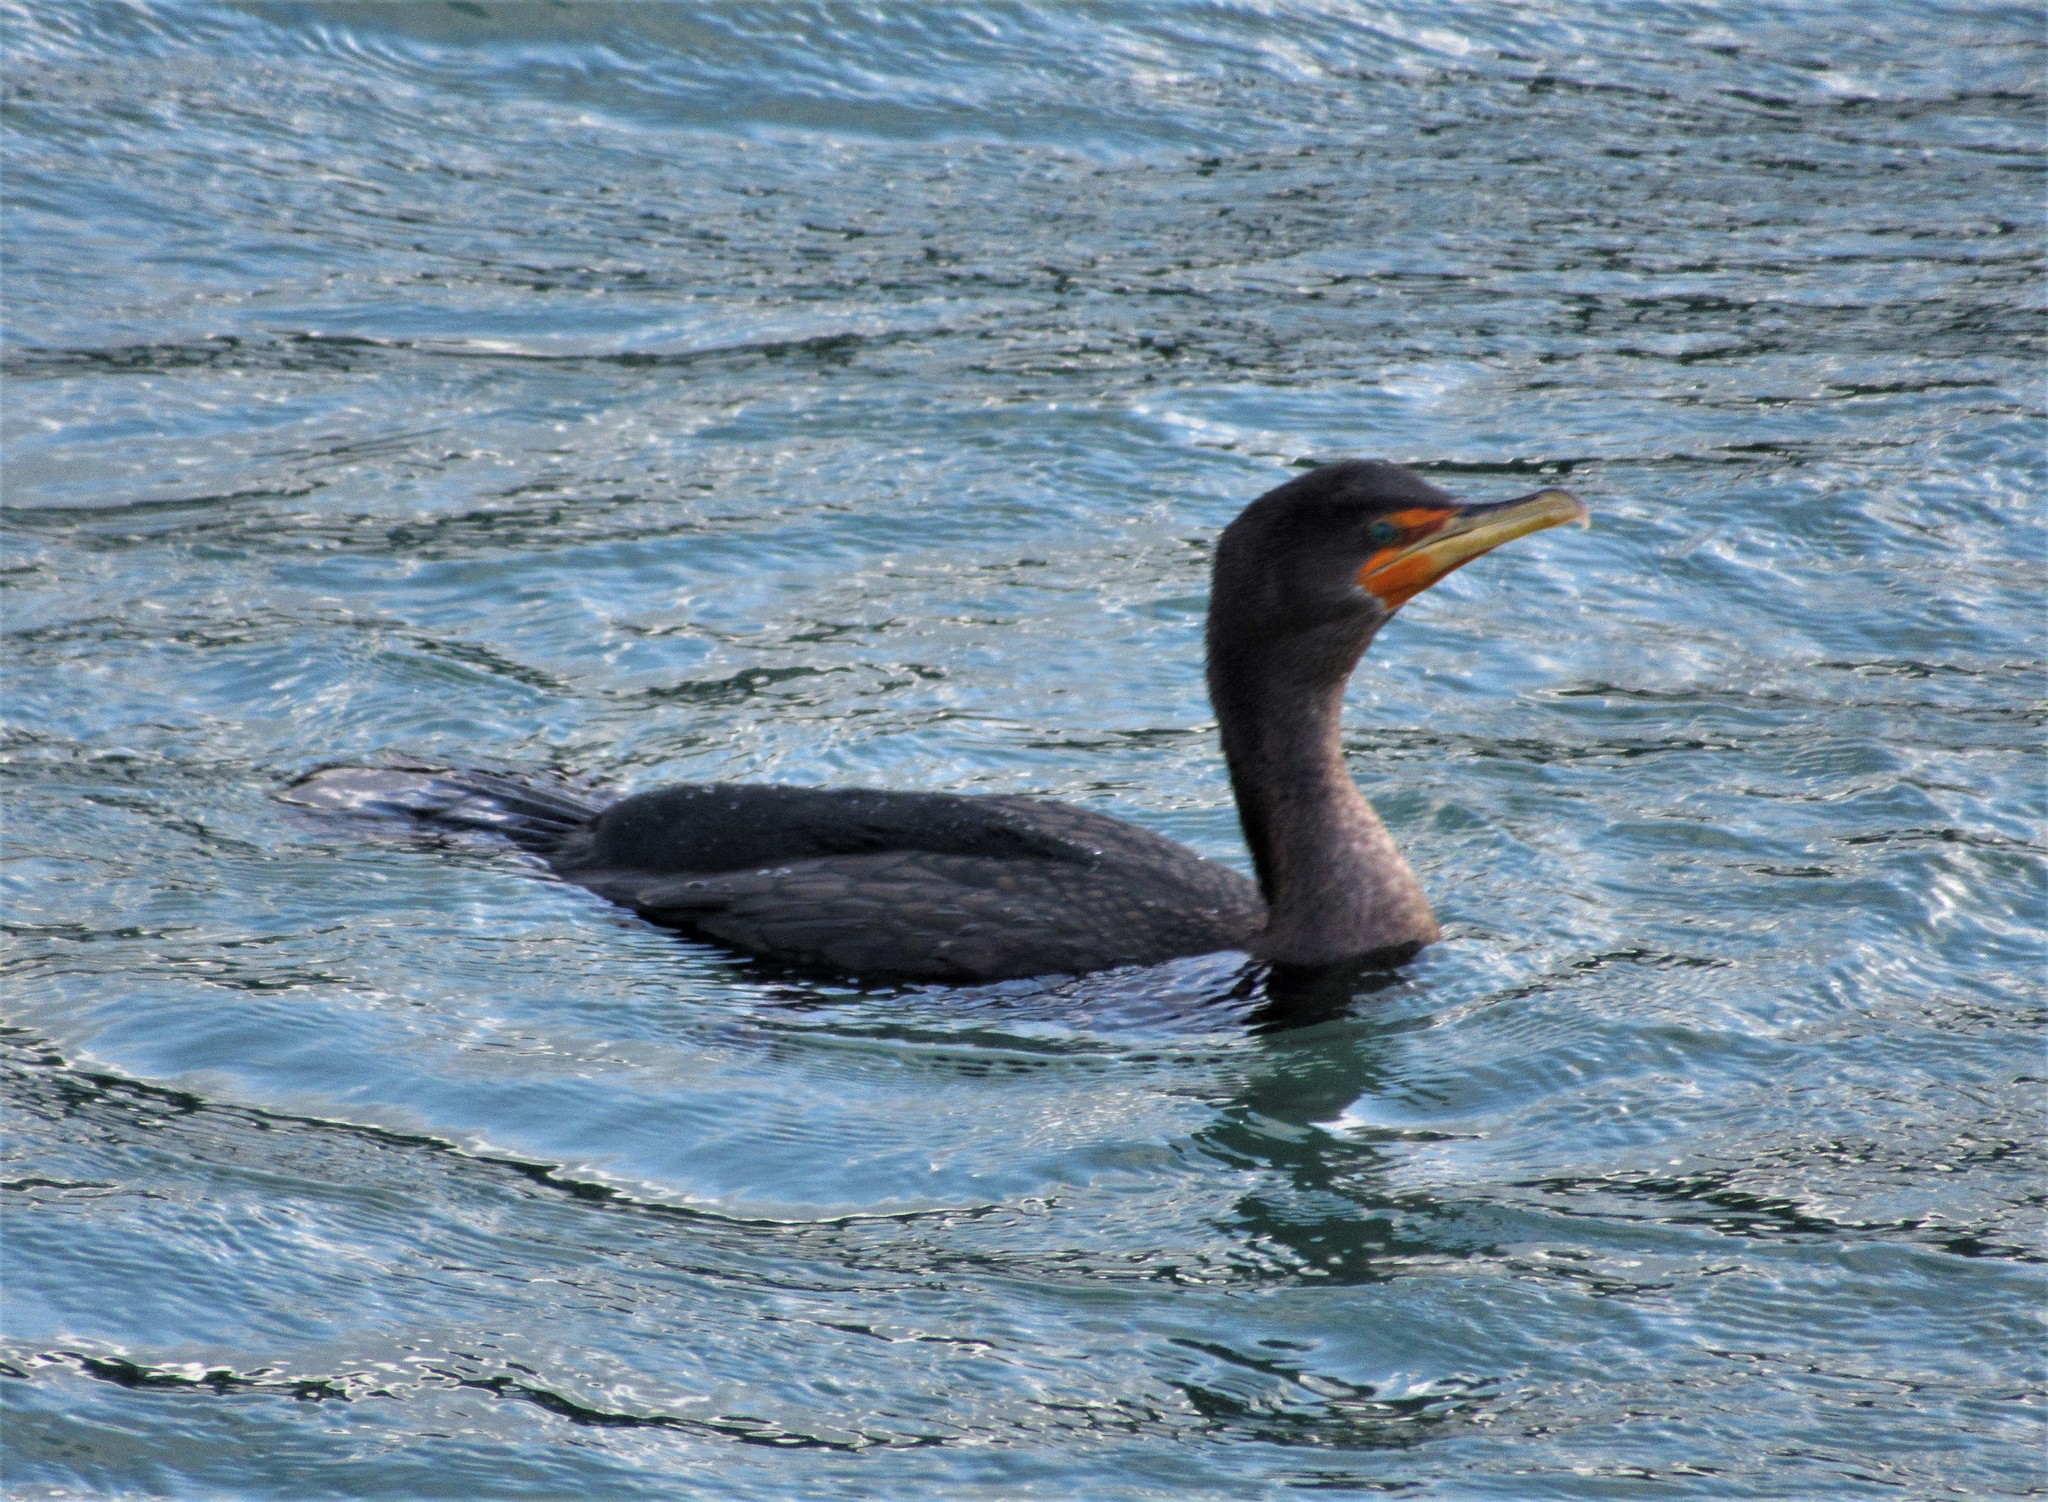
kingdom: Animalia
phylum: Chordata
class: Aves
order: Suliformes
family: Phalacrocoracidae
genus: Phalacrocorax
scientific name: Phalacrocorax auritus
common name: Double-crested cormorant
